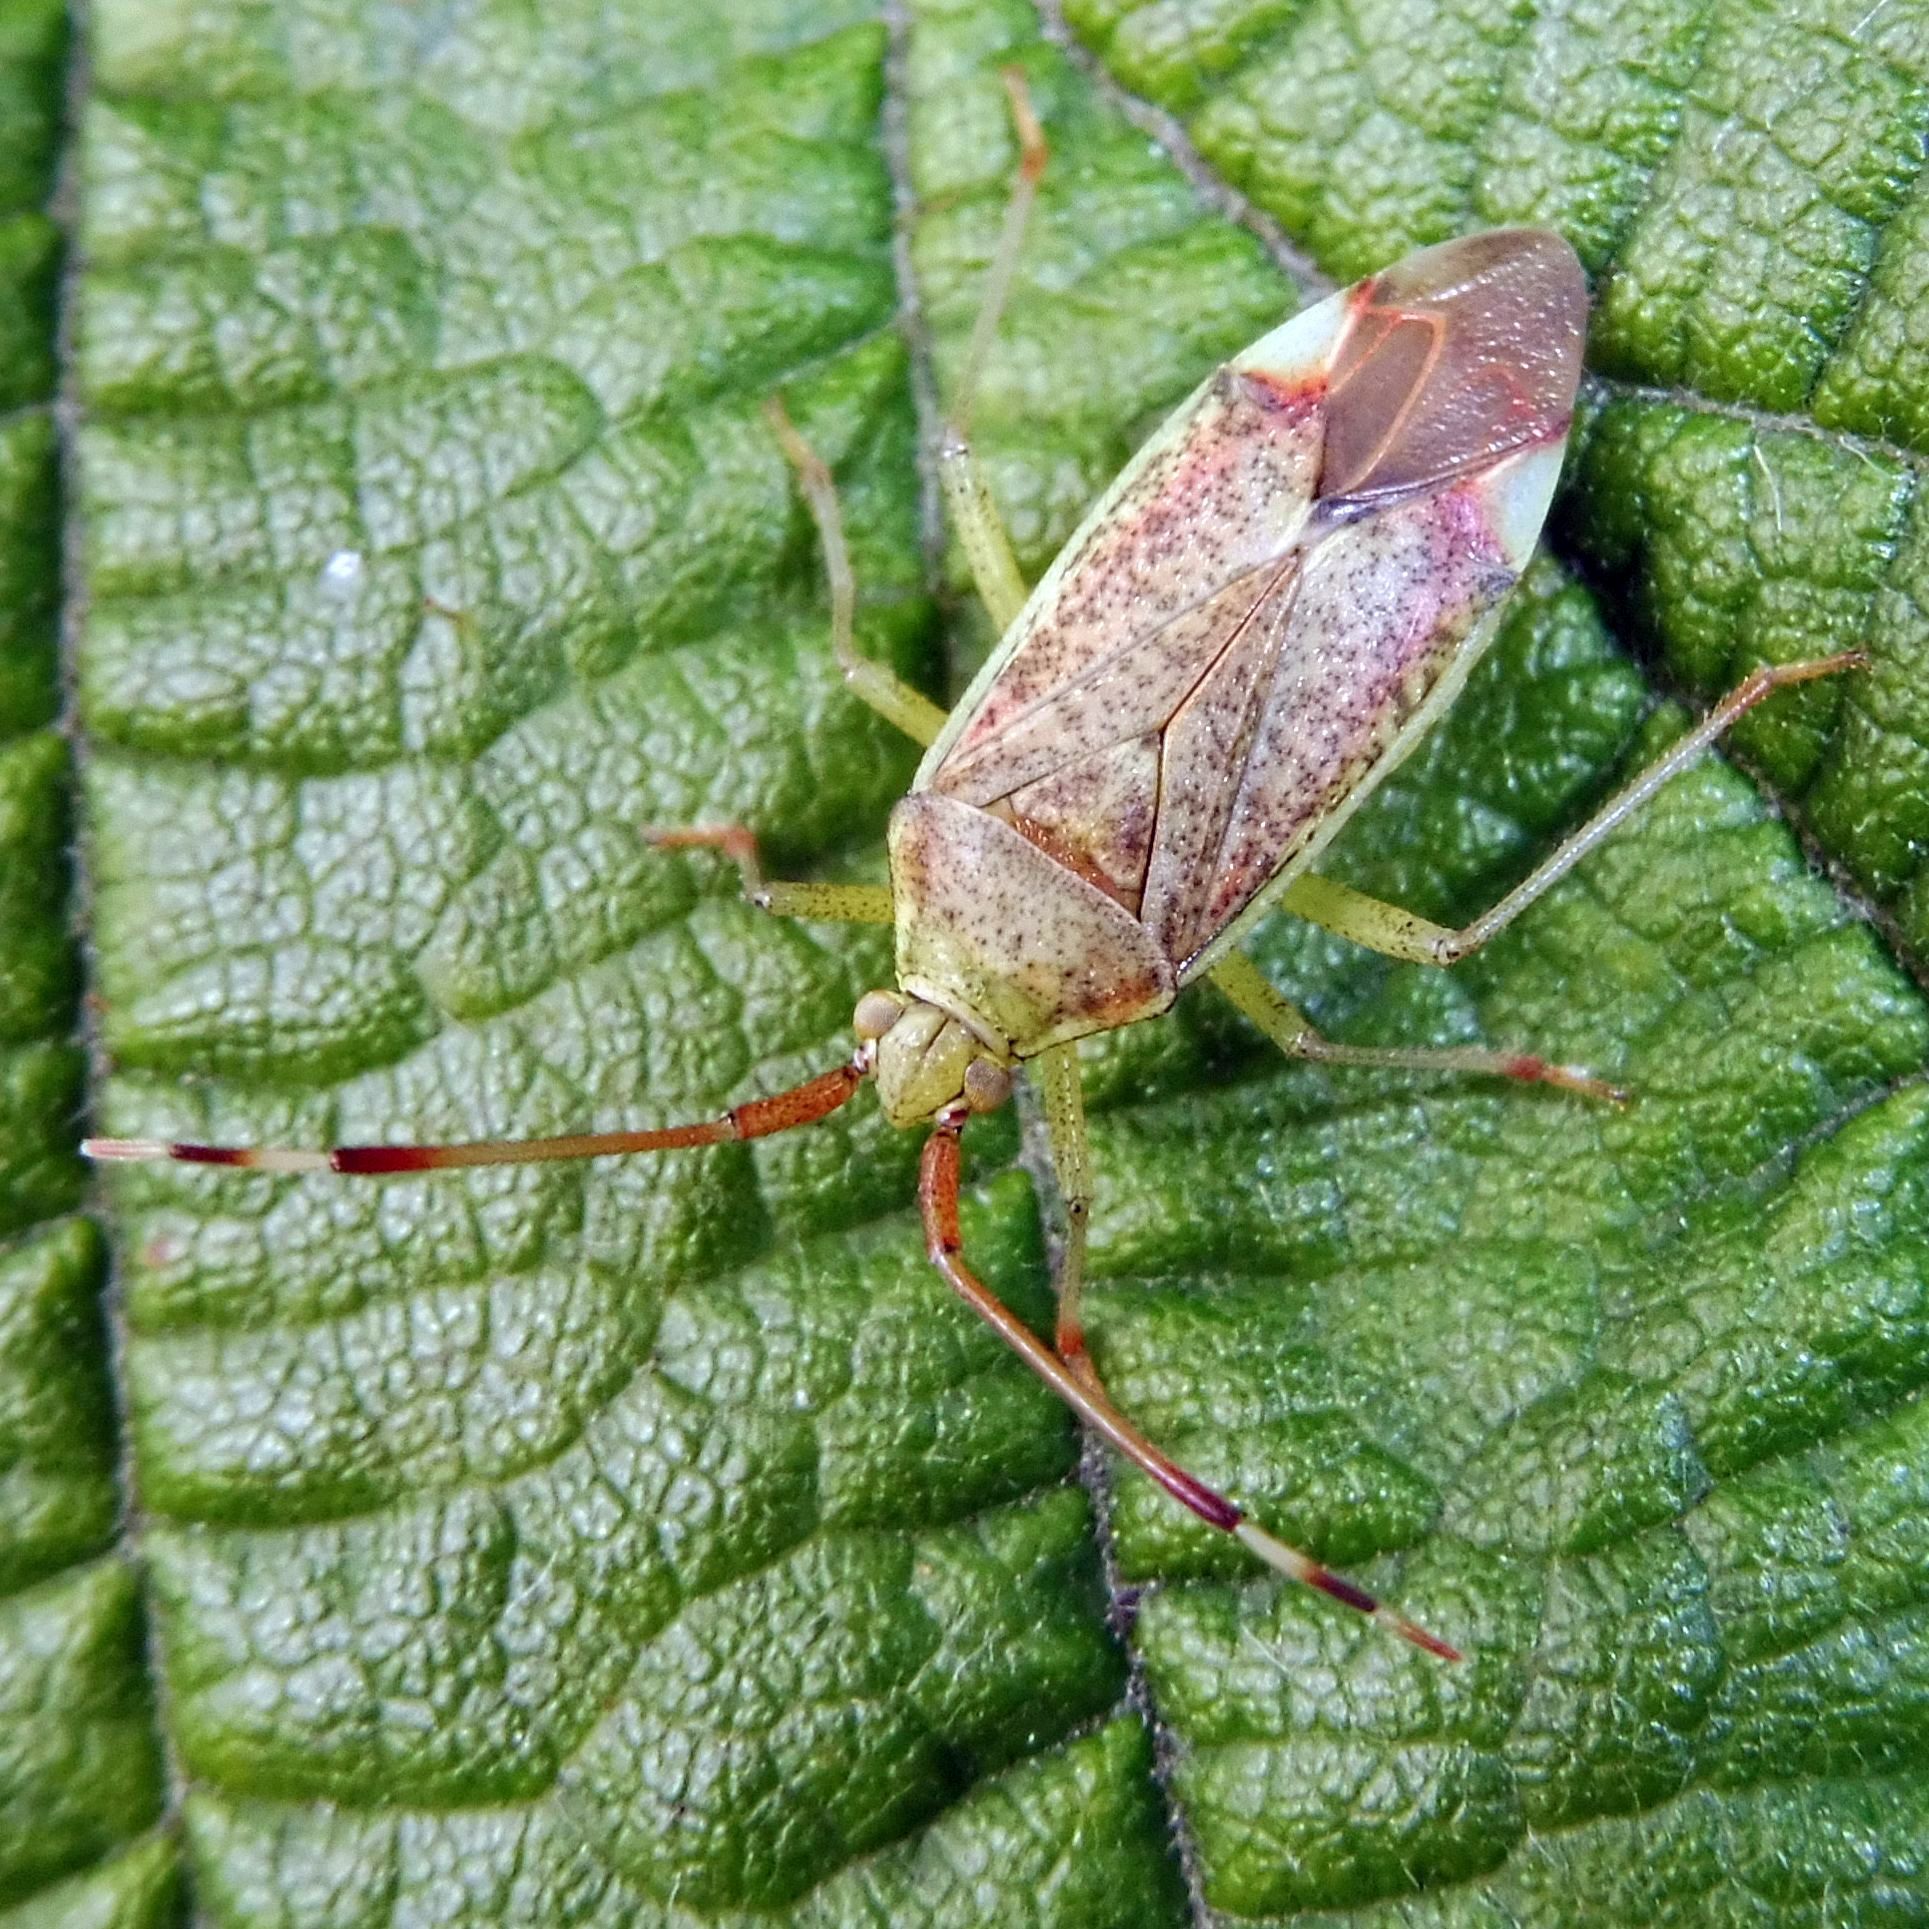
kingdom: Animalia
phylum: Arthropoda
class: Insecta
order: Hemiptera
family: Miridae
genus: Pantilius
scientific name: Pantilius tunicatus
